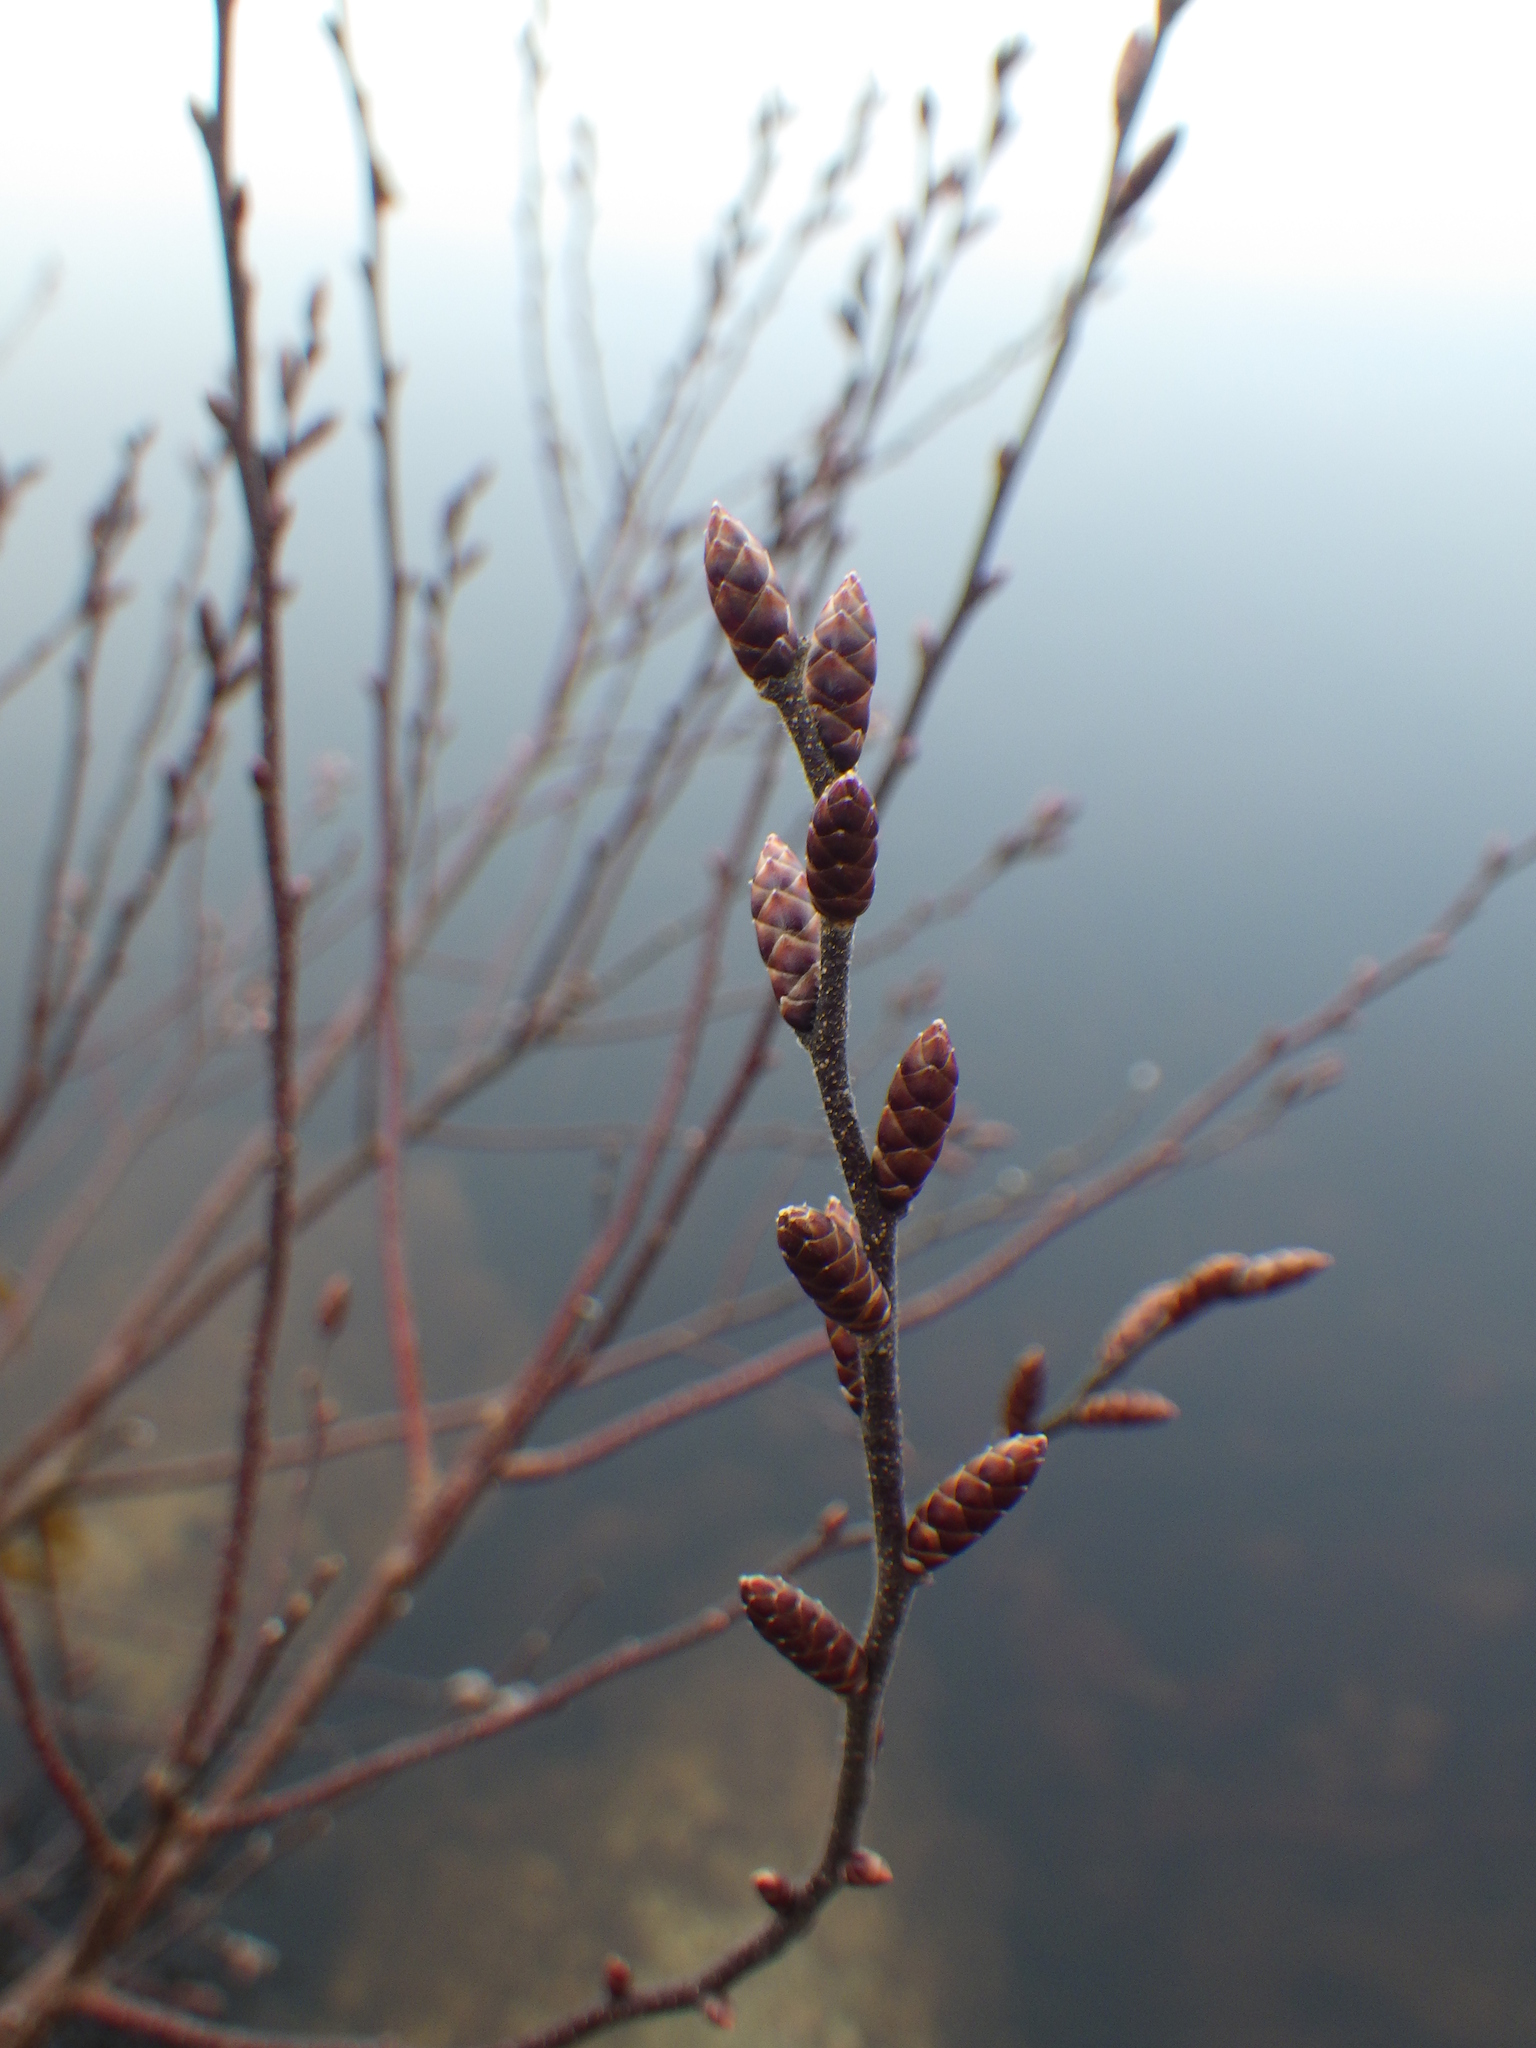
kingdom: Plantae
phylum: Tracheophyta
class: Magnoliopsida
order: Fagales
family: Myricaceae
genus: Myrica
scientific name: Myrica gale
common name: Sweet gale
